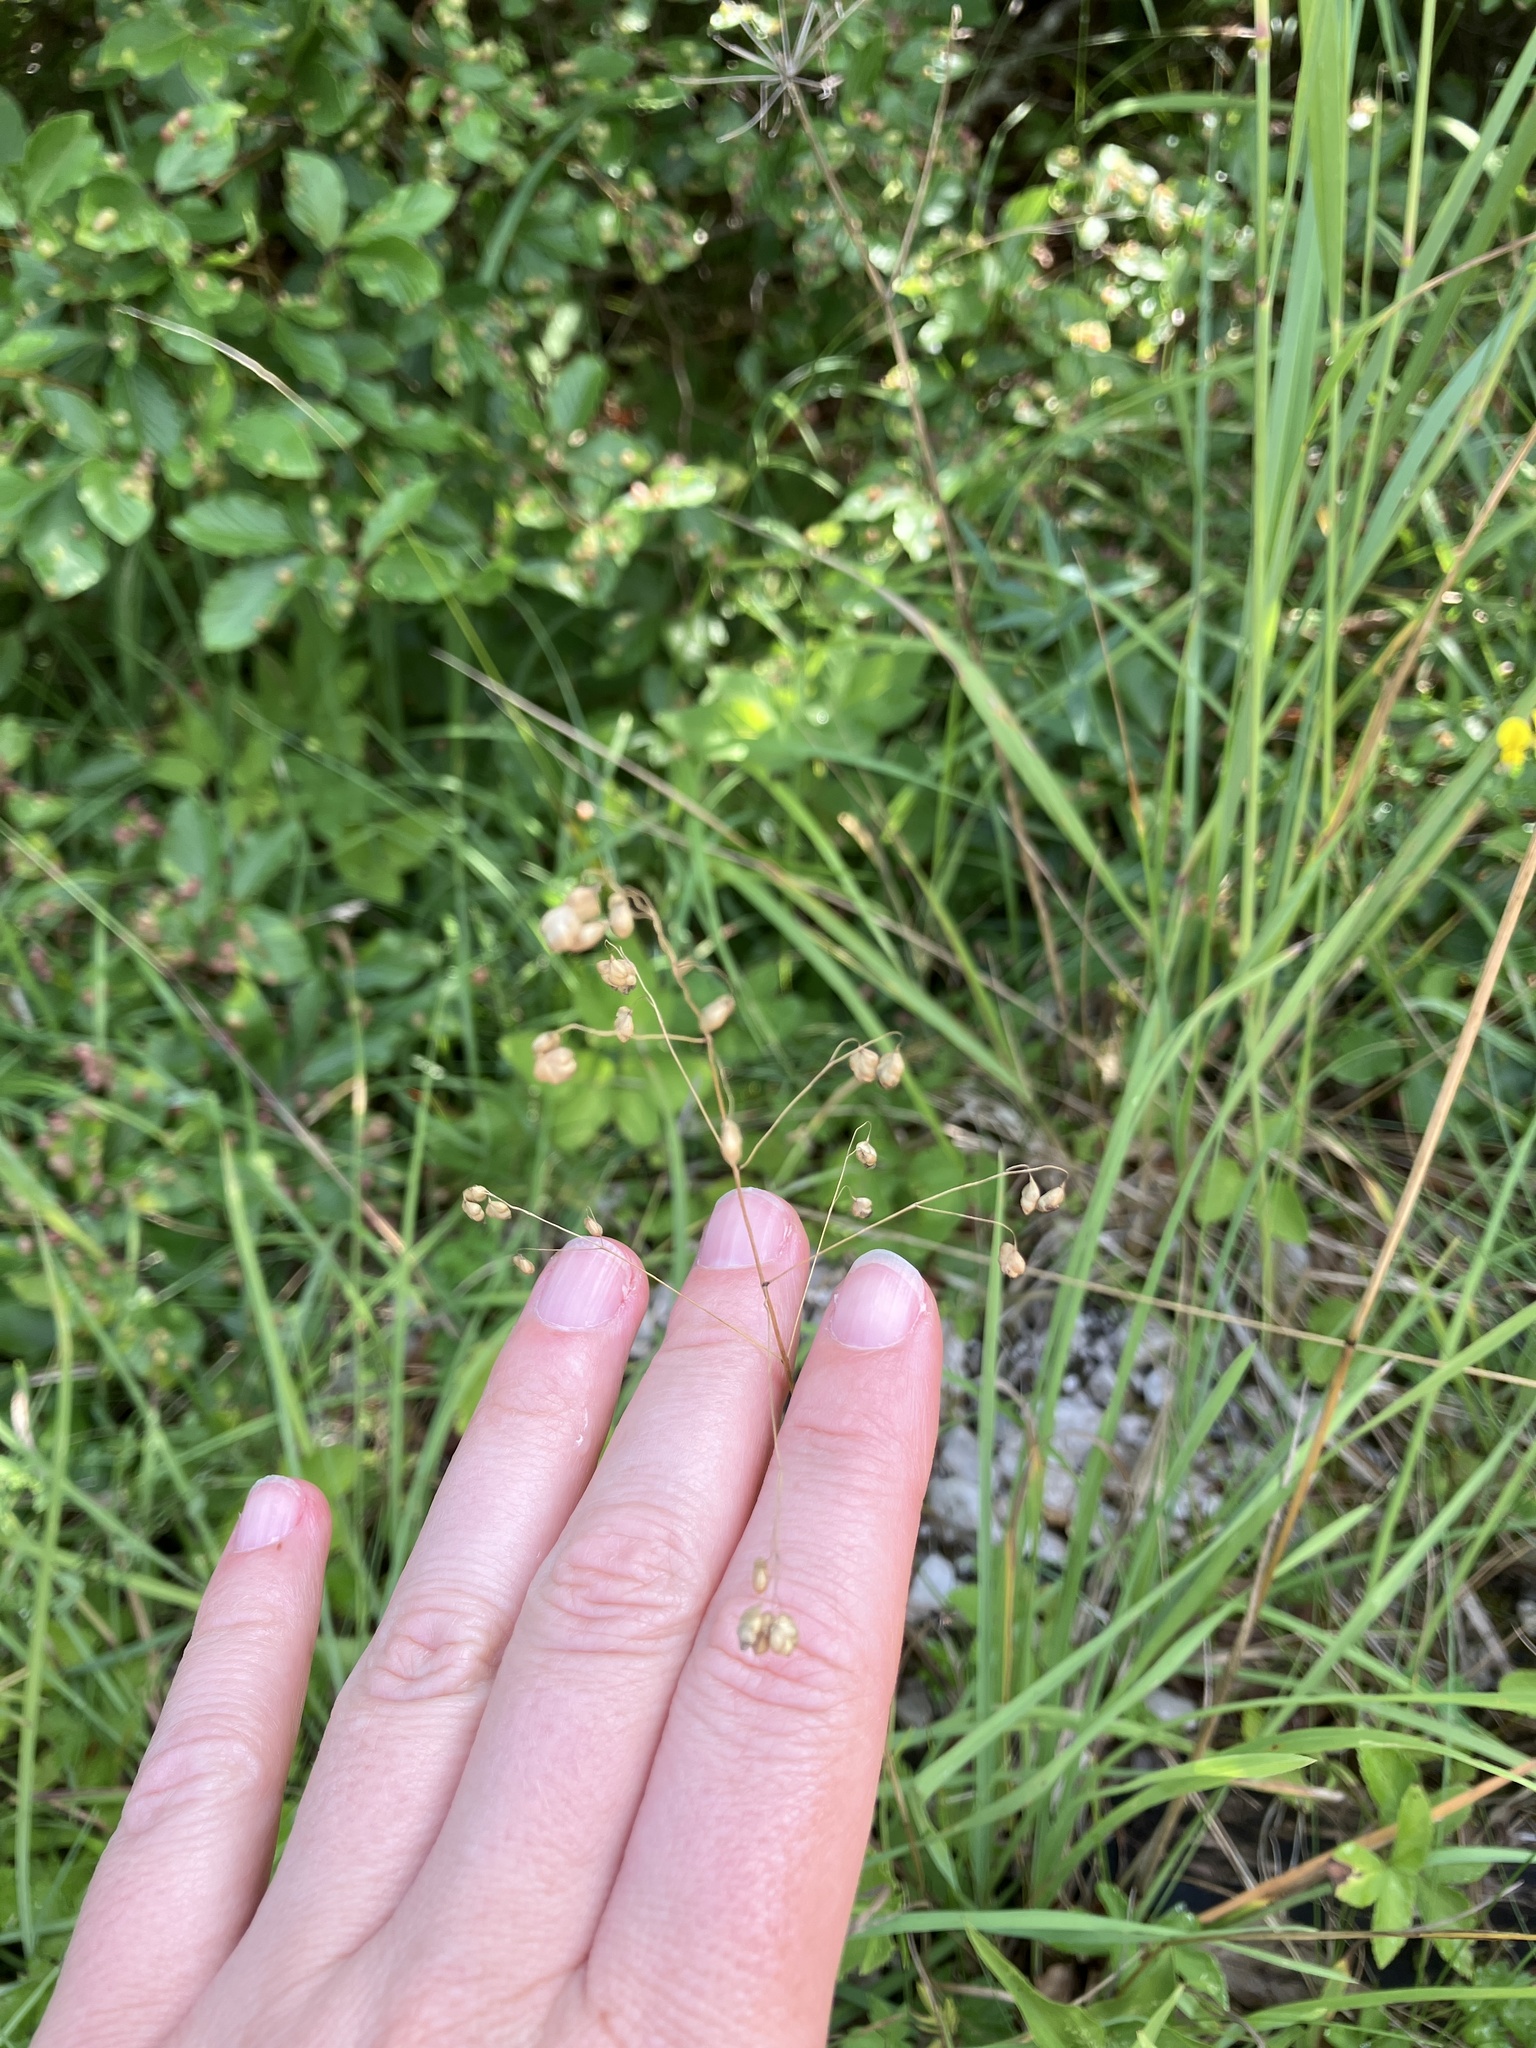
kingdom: Plantae
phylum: Tracheophyta
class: Liliopsida
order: Poales
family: Poaceae
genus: Briza
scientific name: Briza media
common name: Quaking grass
